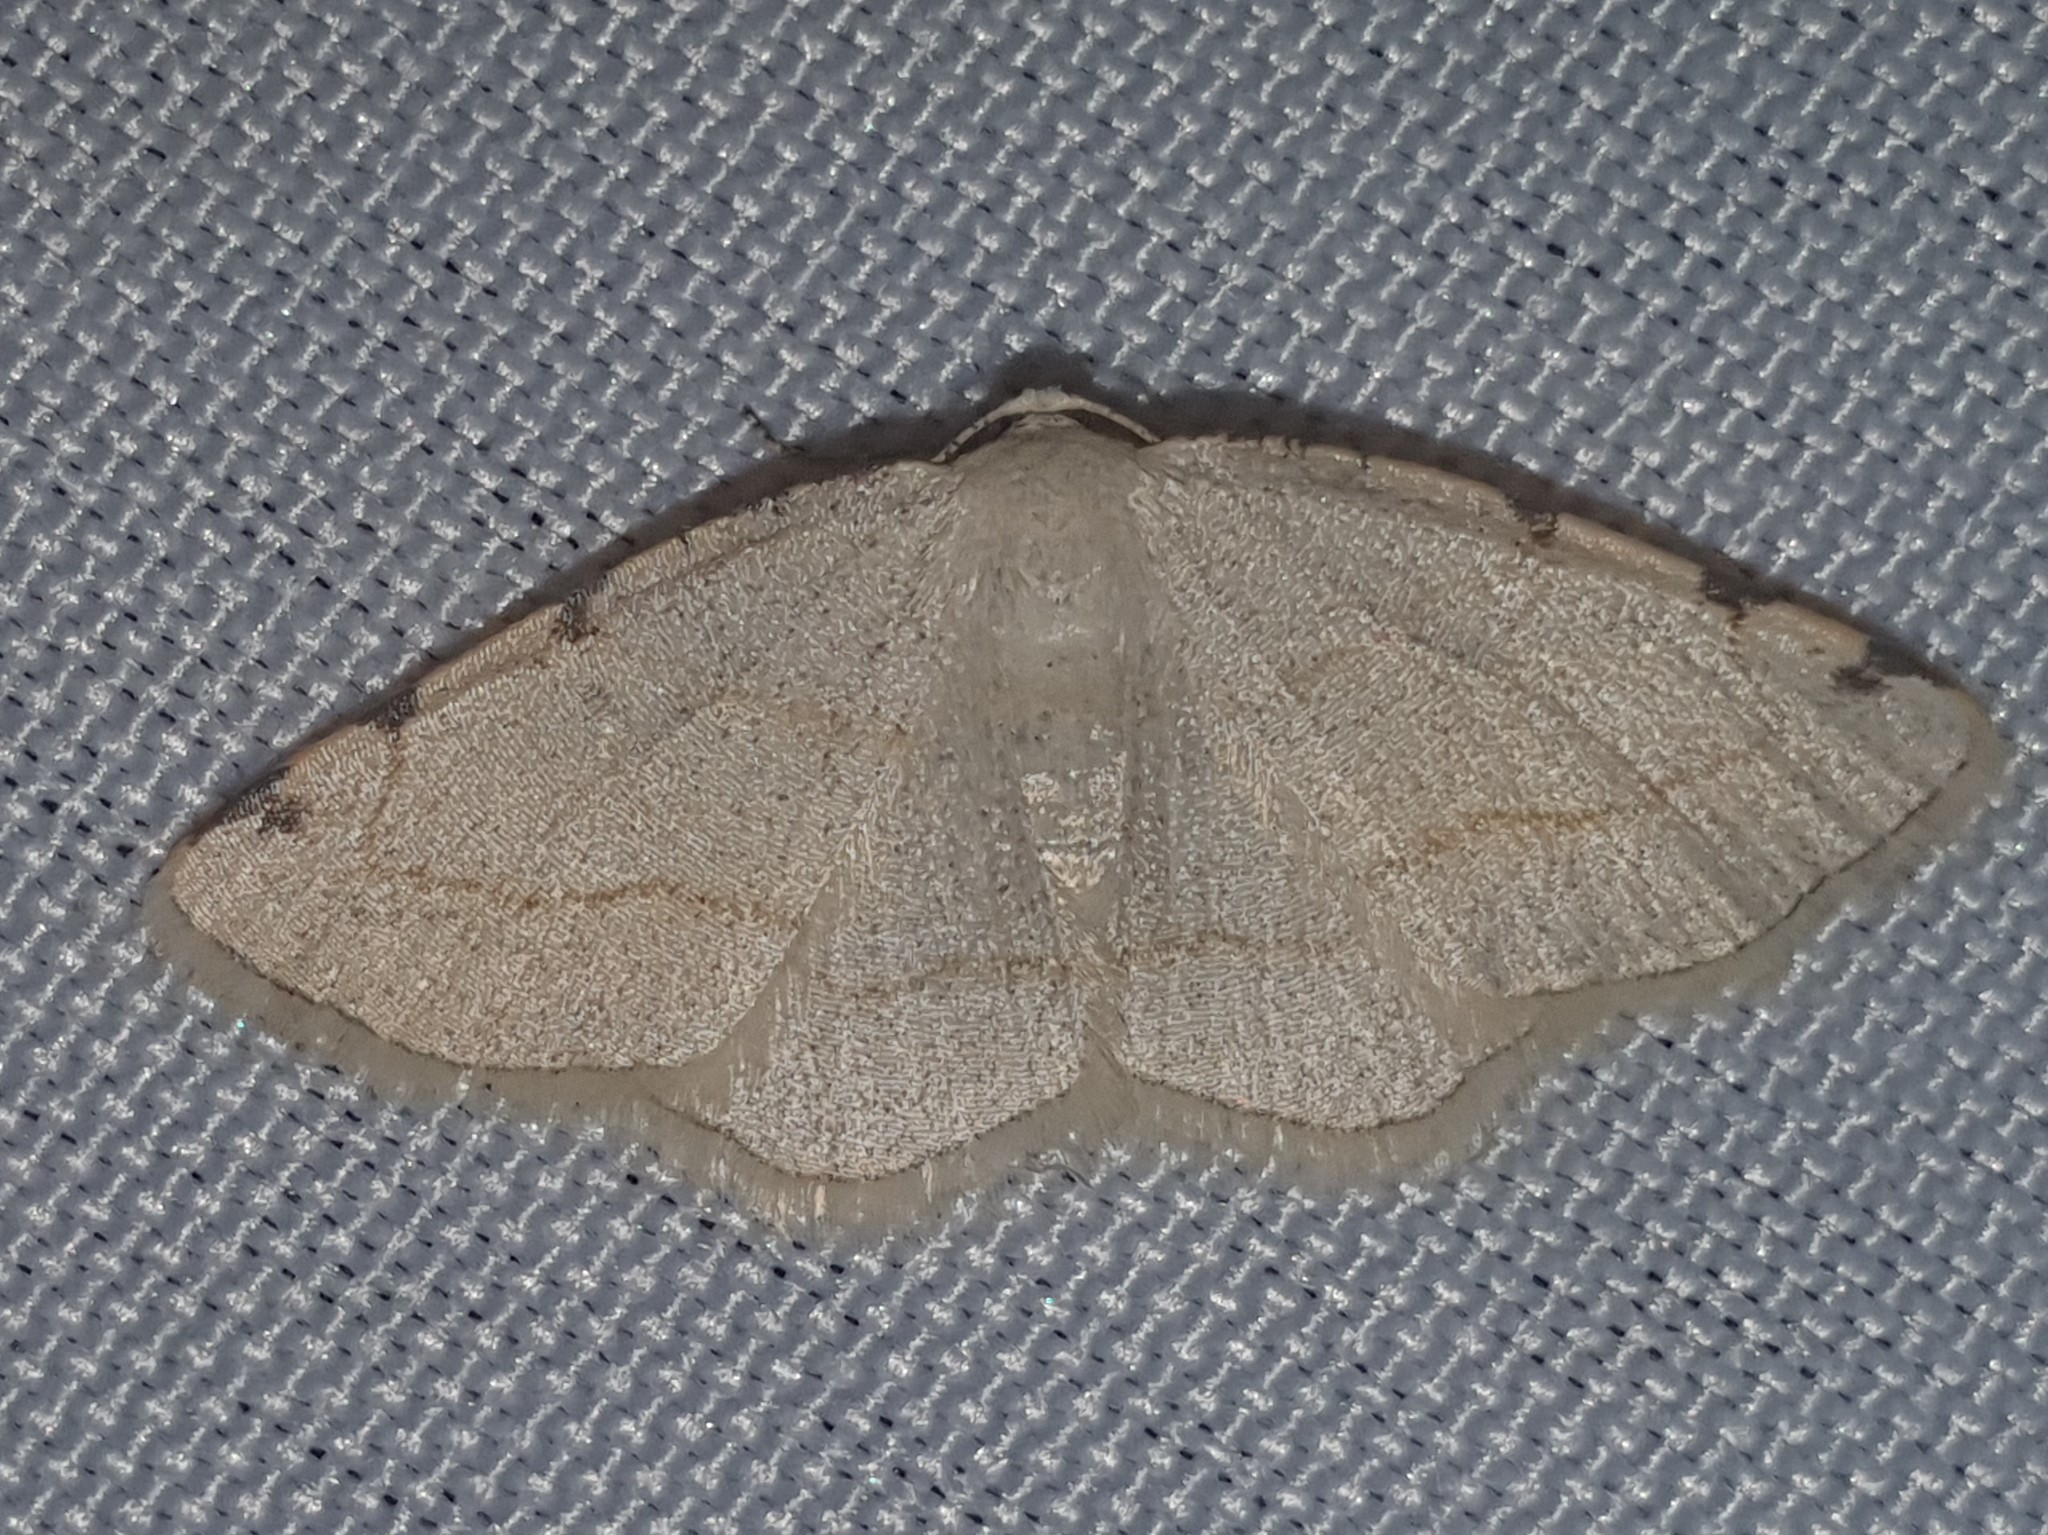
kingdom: Animalia
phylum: Arthropoda
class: Insecta
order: Lepidoptera
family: Geometridae
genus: Stegania
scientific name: Stegania trimaculata
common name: Dorset cream wave
